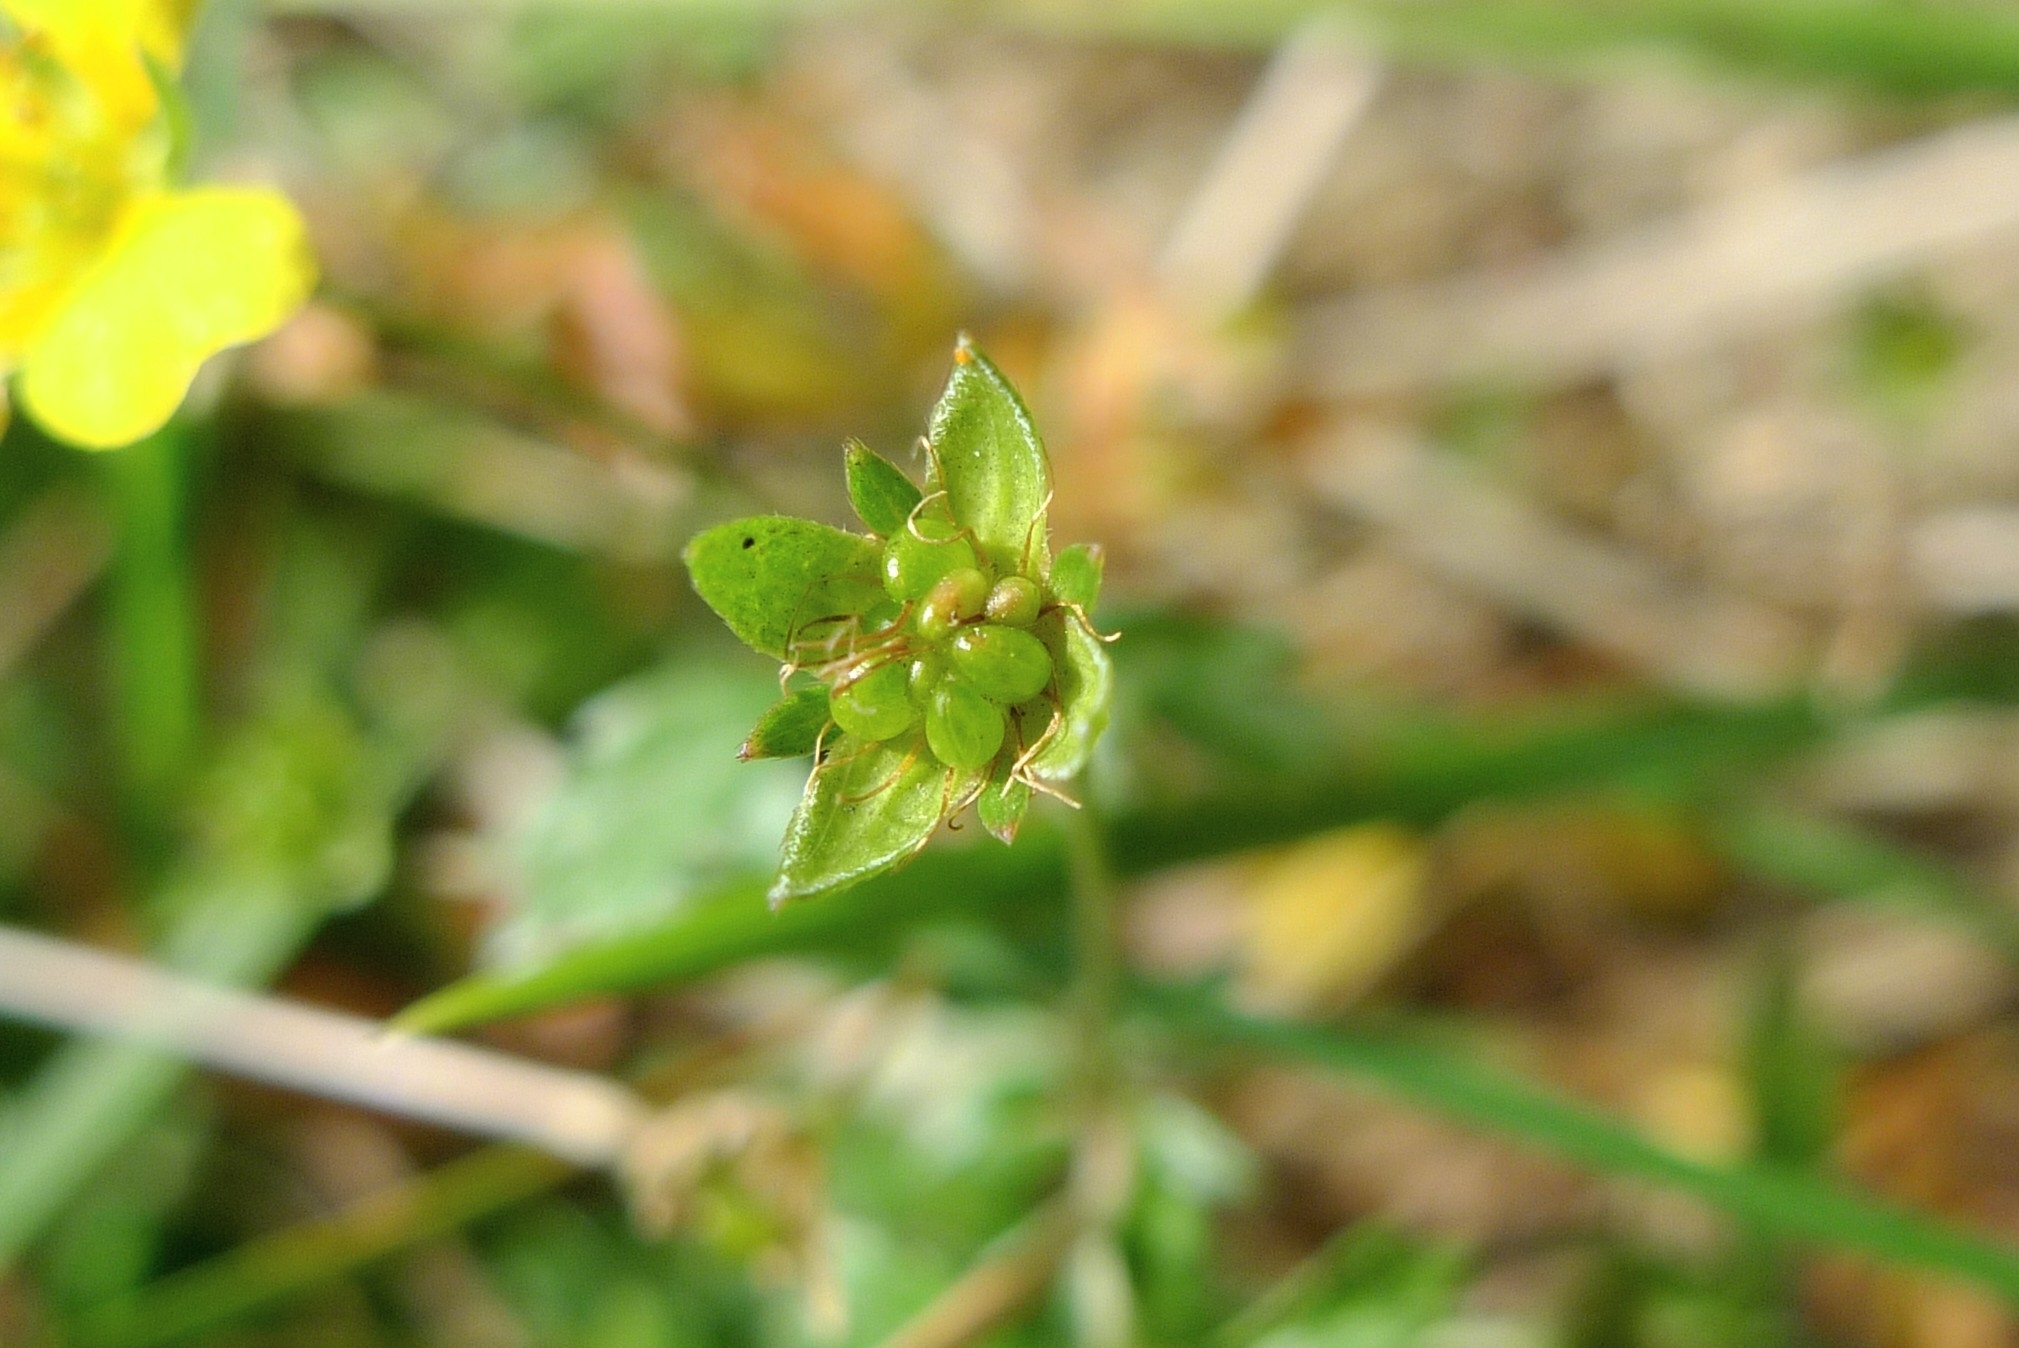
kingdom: Plantae
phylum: Tracheophyta
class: Magnoliopsida
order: Rosales
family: Rosaceae
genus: Potentilla
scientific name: Potentilla erecta
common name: Tormentil
